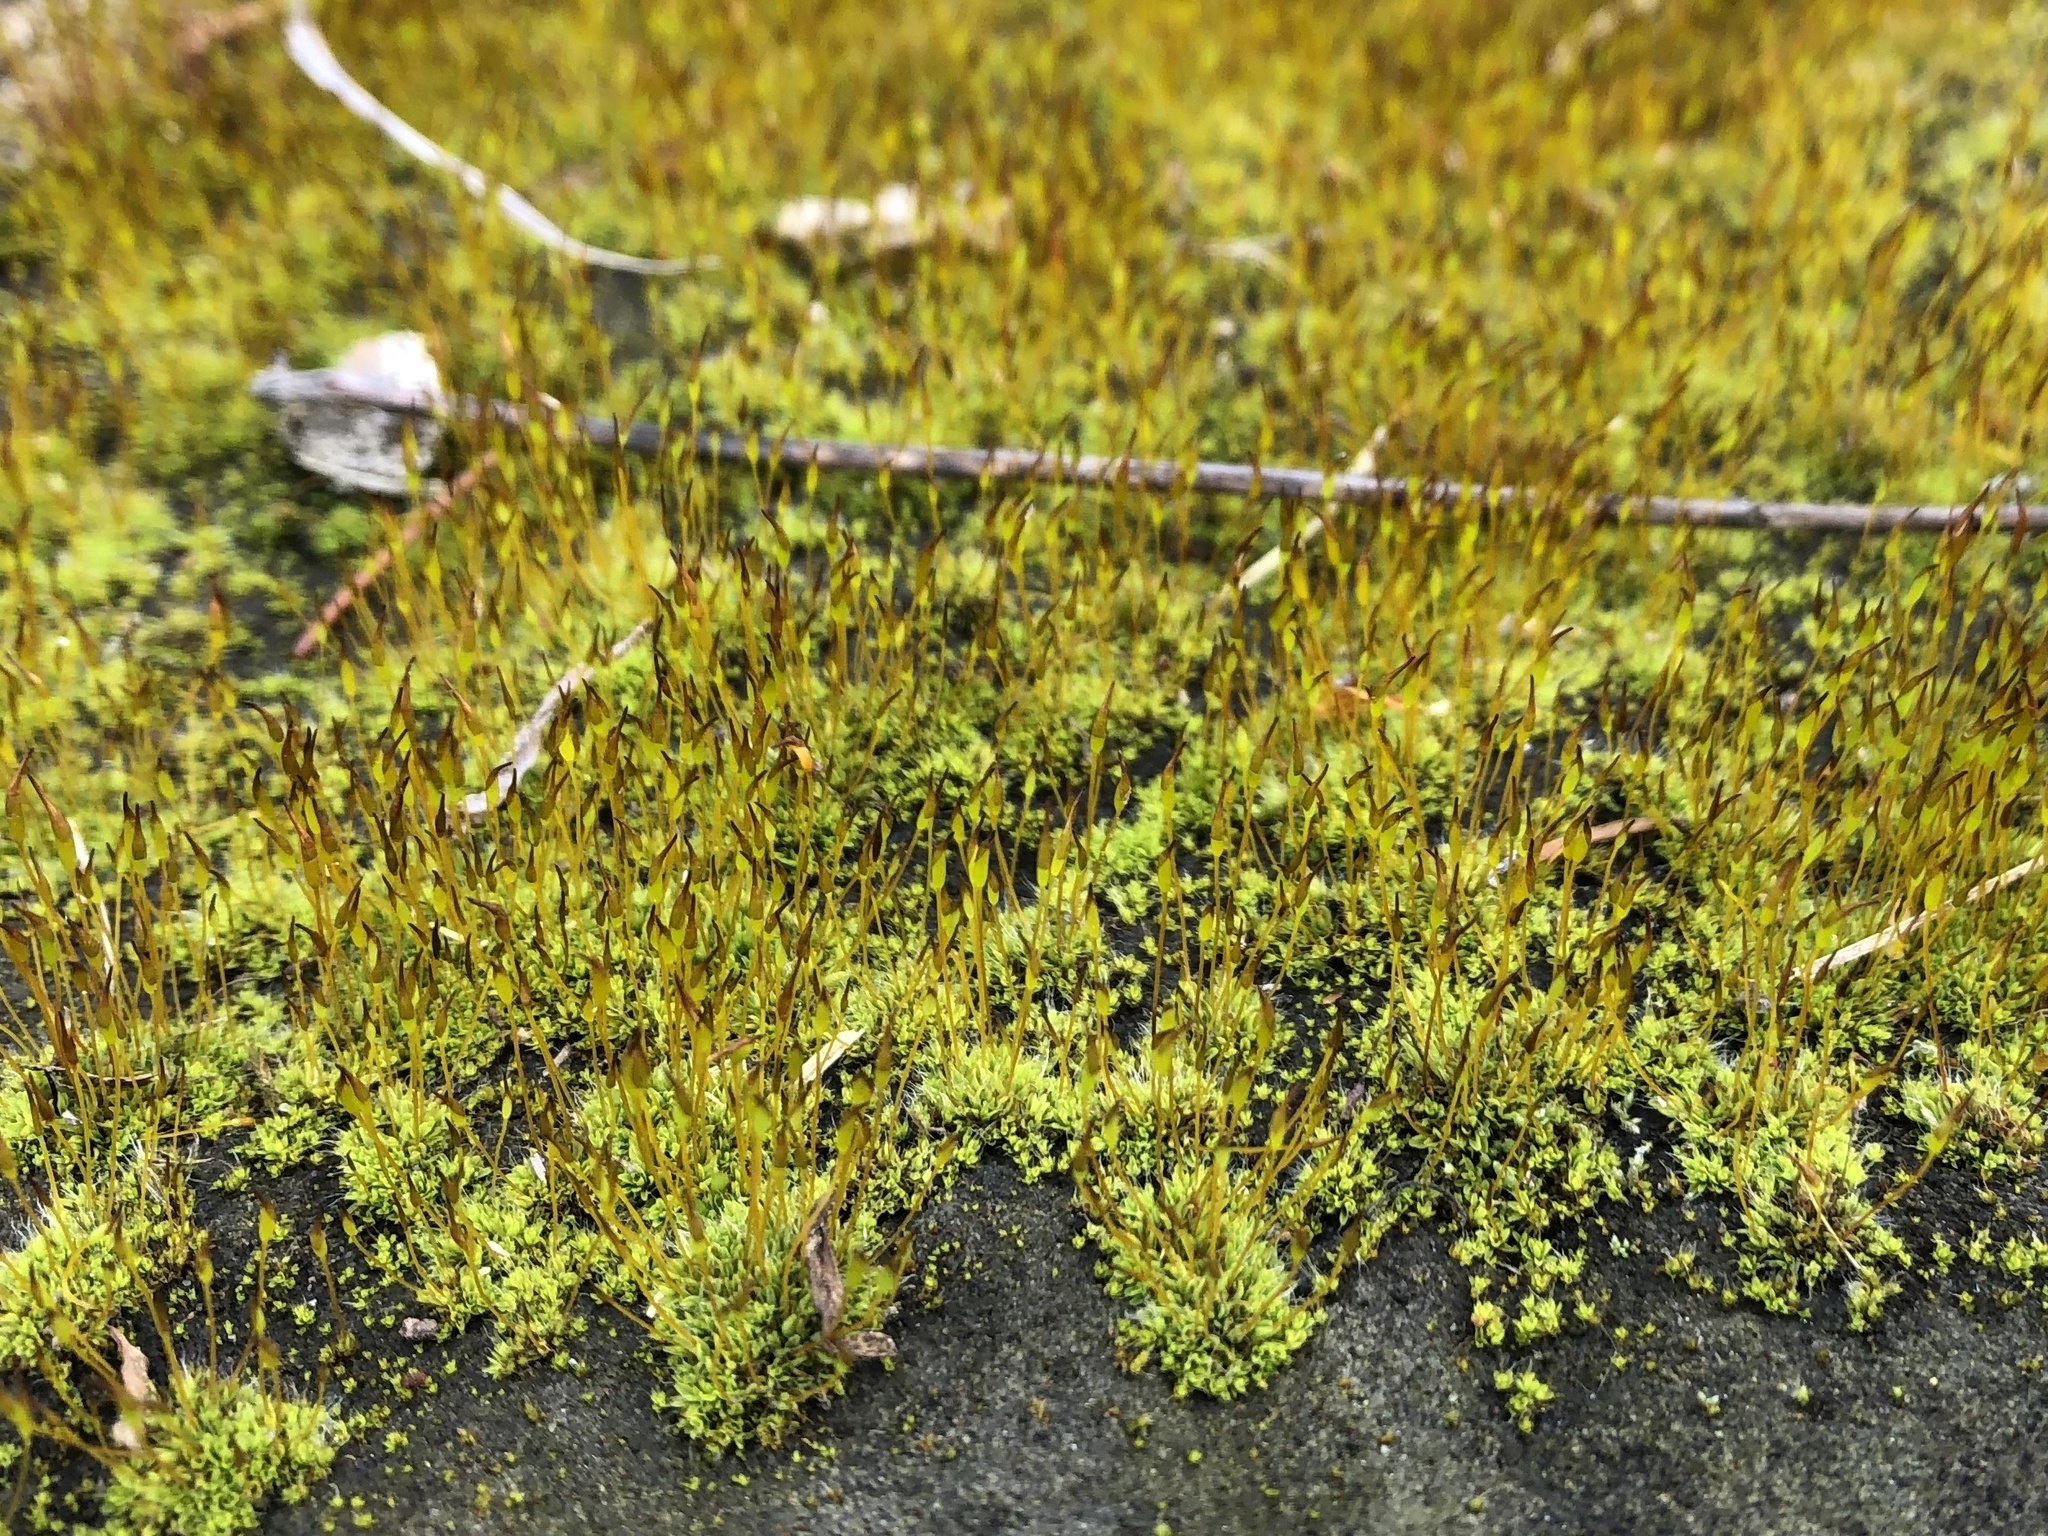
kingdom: Plantae
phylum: Bryophyta
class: Bryopsida
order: Pottiales
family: Pottiaceae
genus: Tortula
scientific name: Tortula muralis
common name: Wall screw-moss
